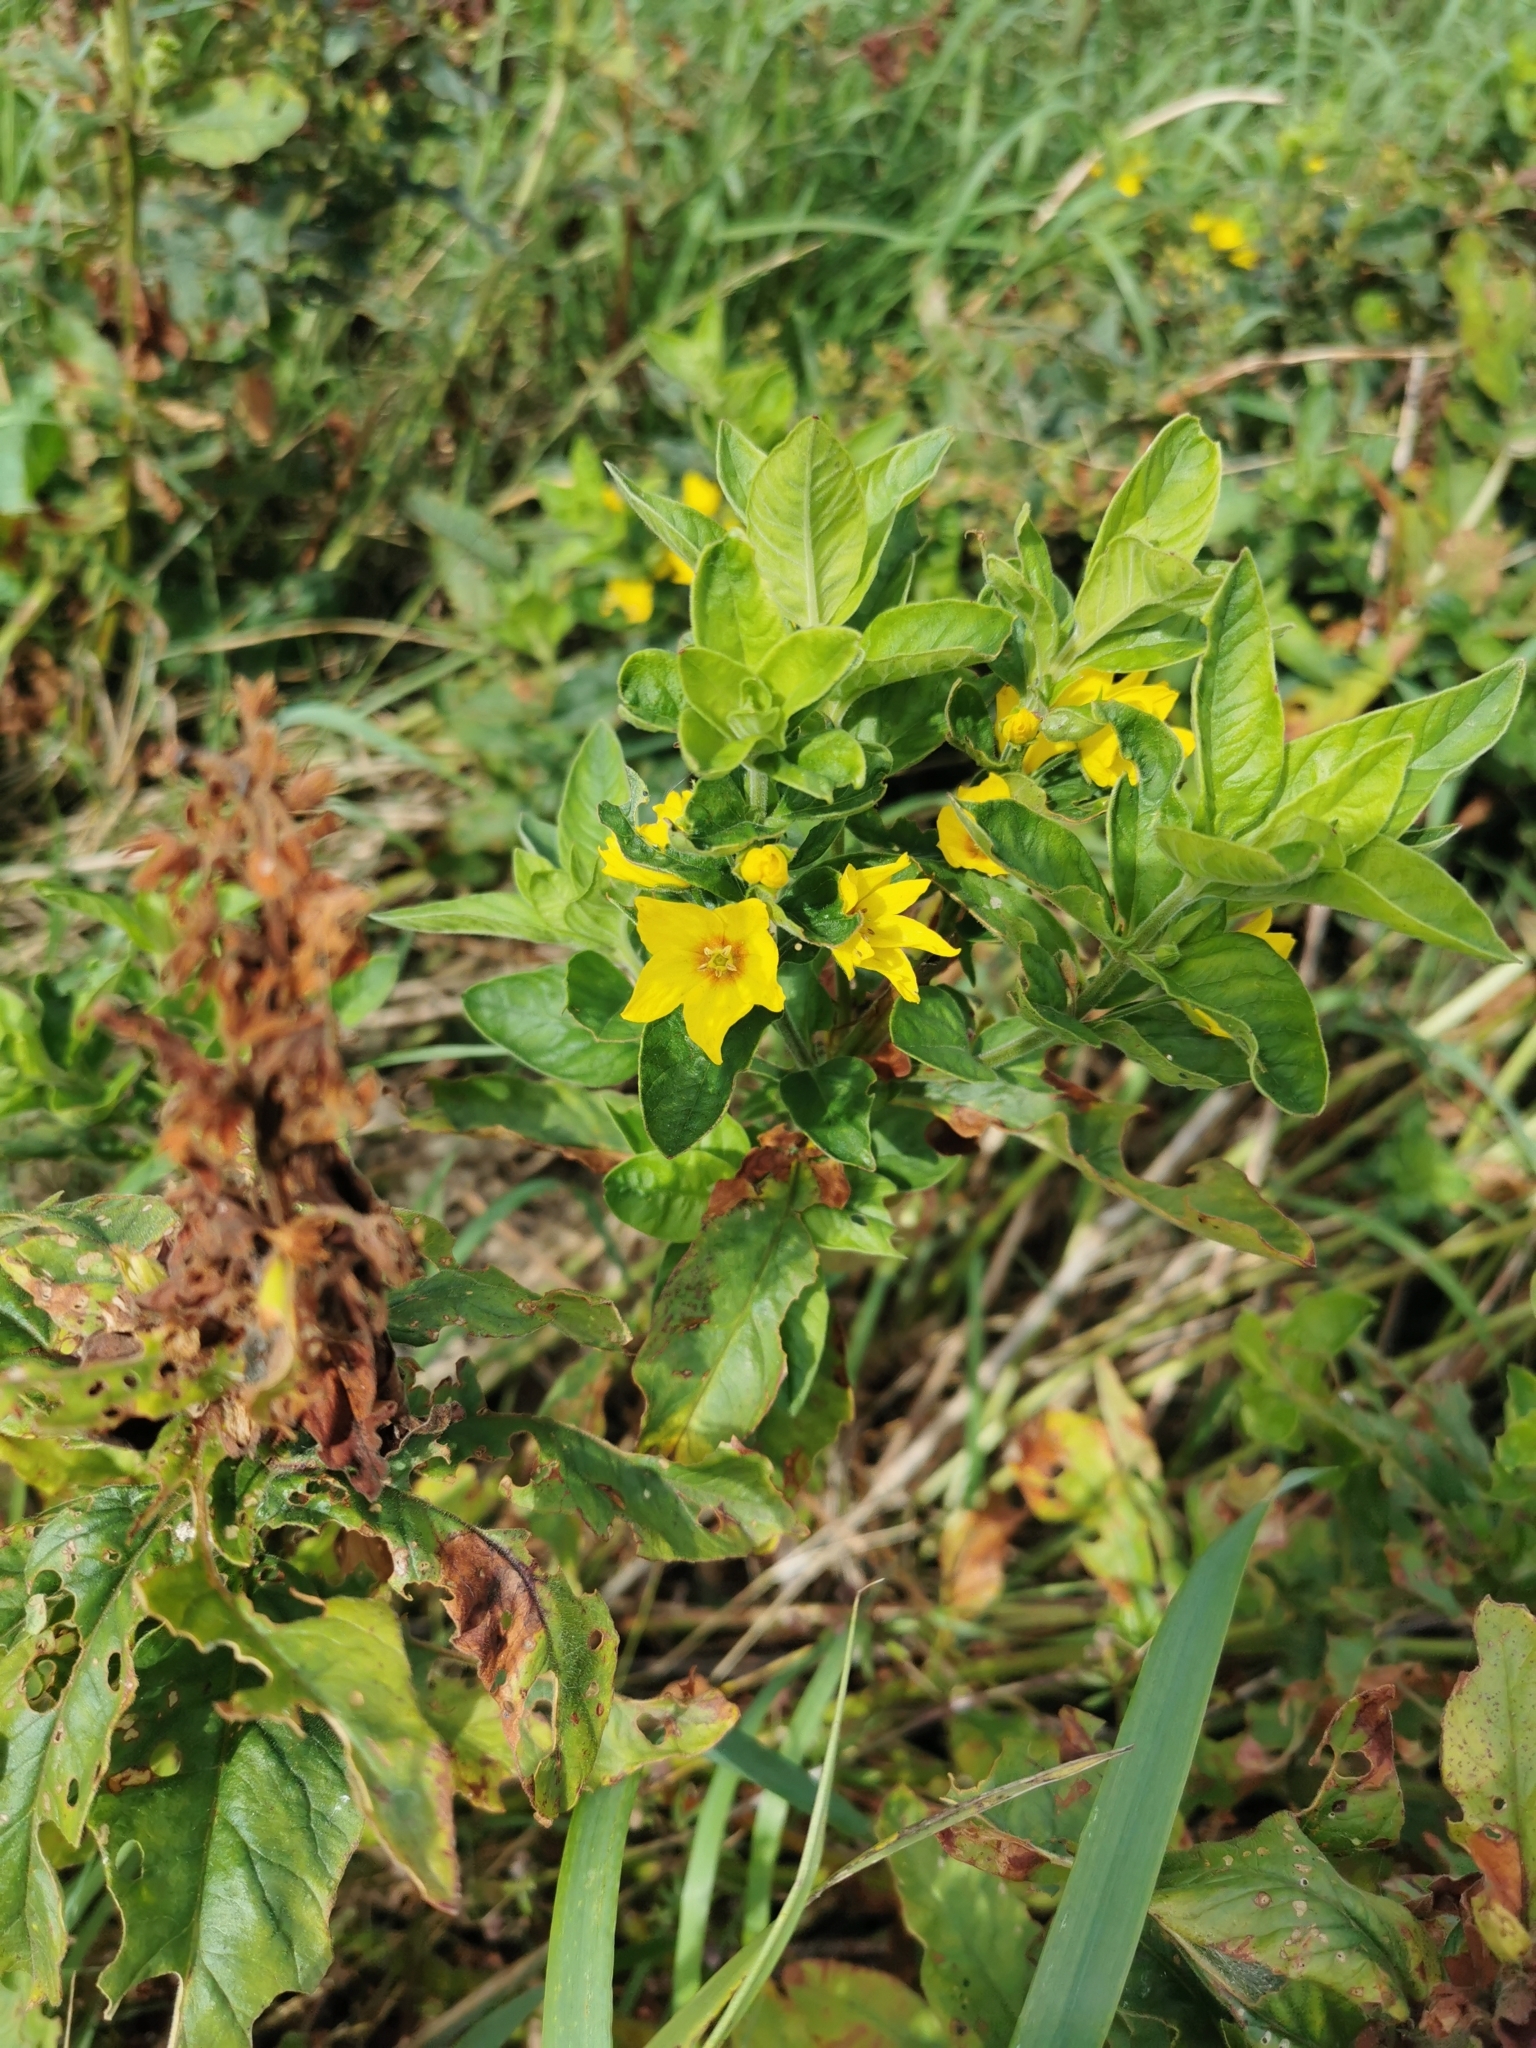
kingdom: Plantae
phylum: Tracheophyta
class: Magnoliopsida
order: Ericales
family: Primulaceae
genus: Lysimachia
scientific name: Lysimachia punctata
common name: Dotted loosestrife
